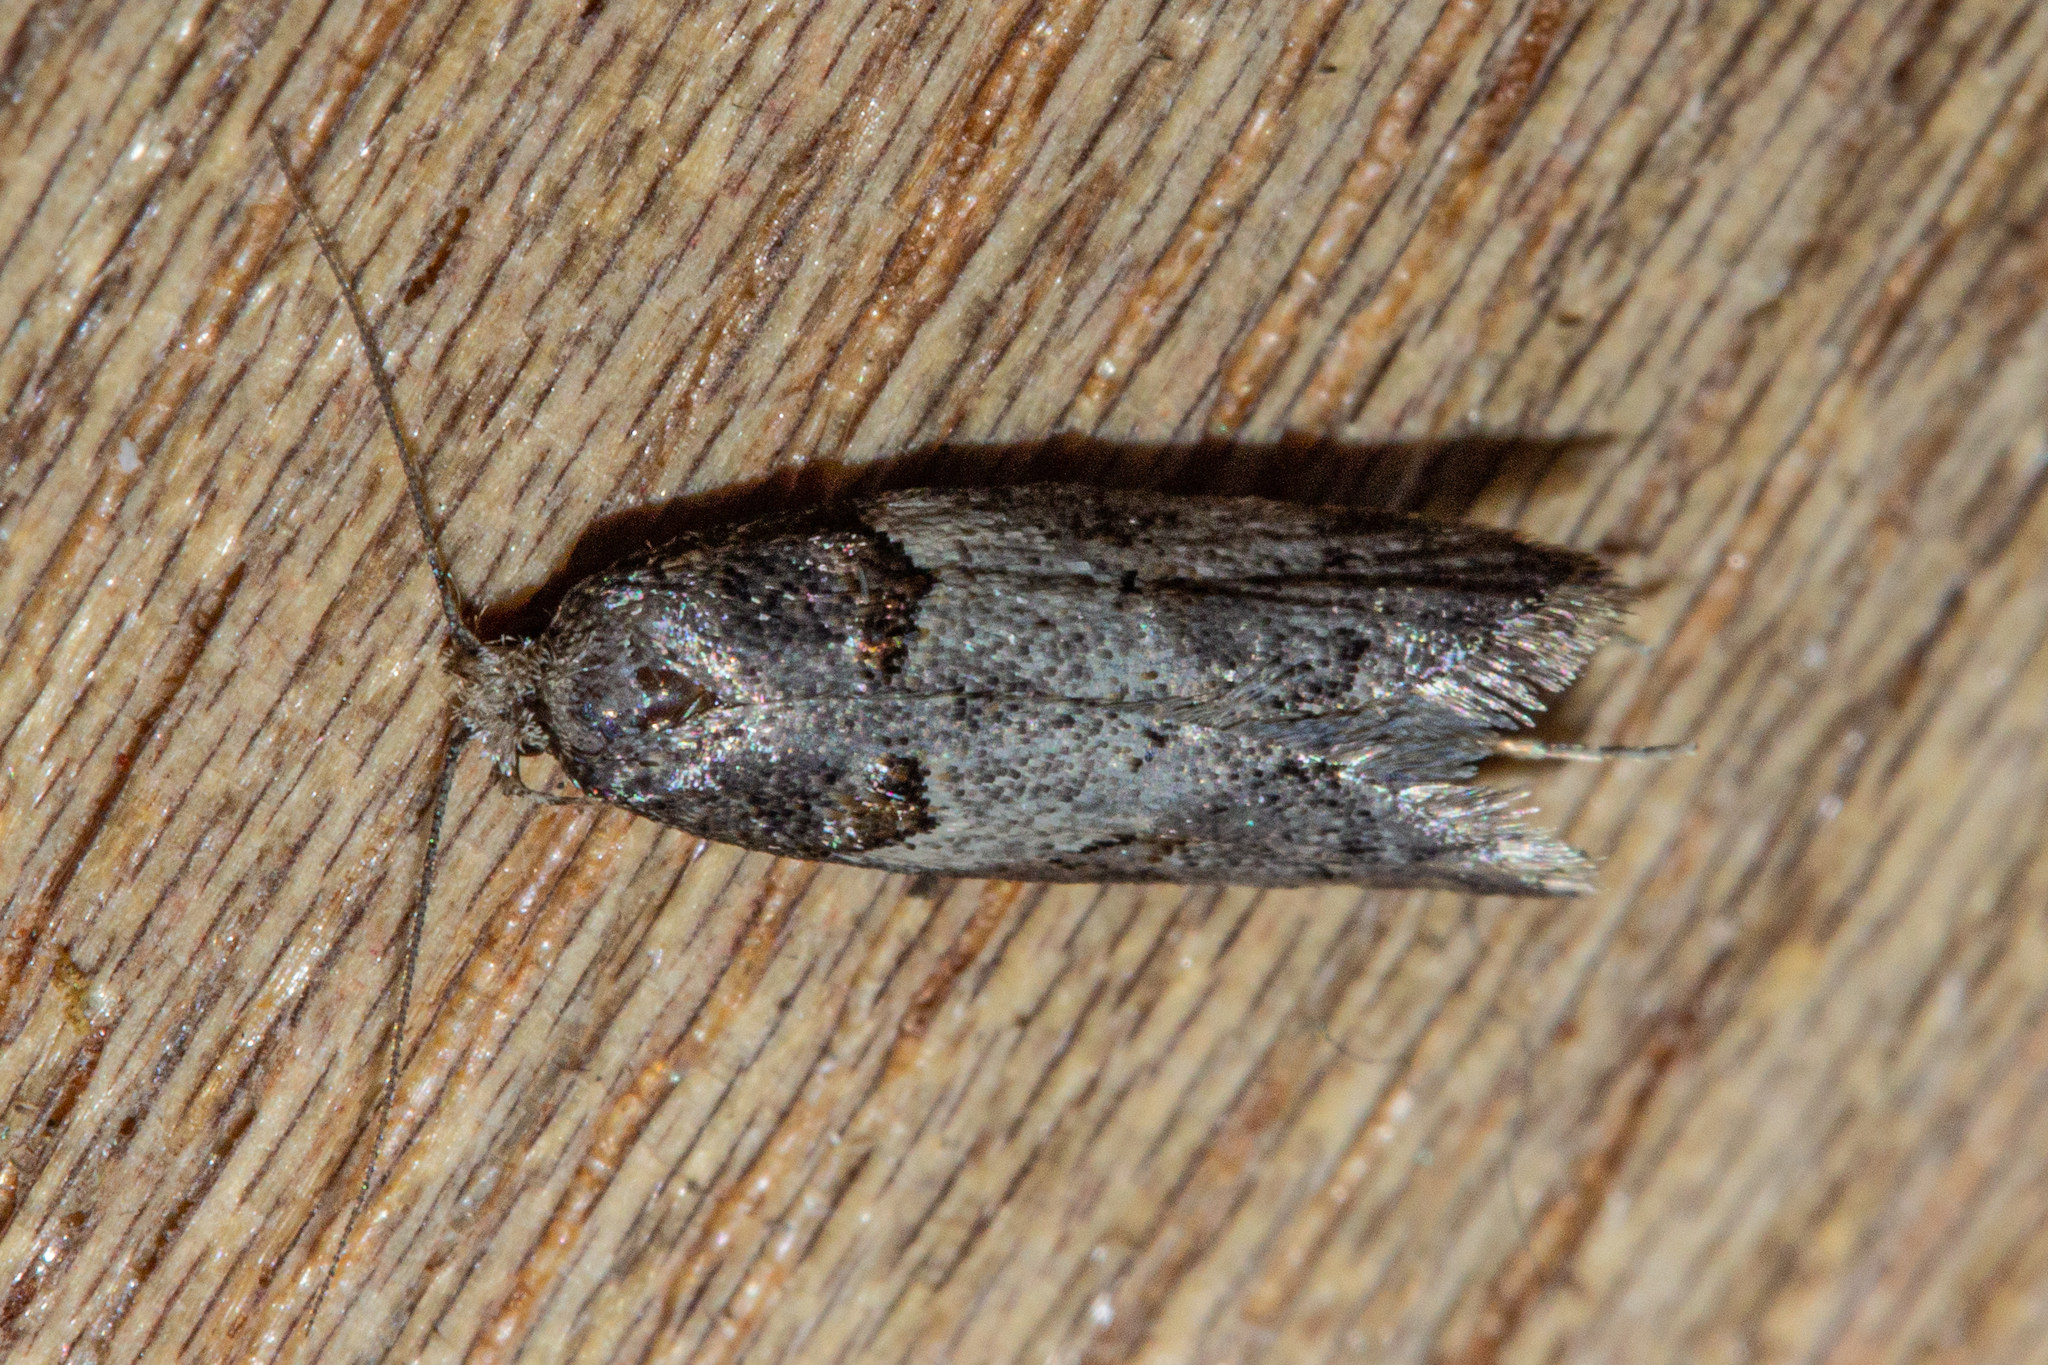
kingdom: Animalia
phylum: Arthropoda
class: Insecta
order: Lepidoptera
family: Oecophoridae
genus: Trachypepla
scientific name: Trachypepla contritella
